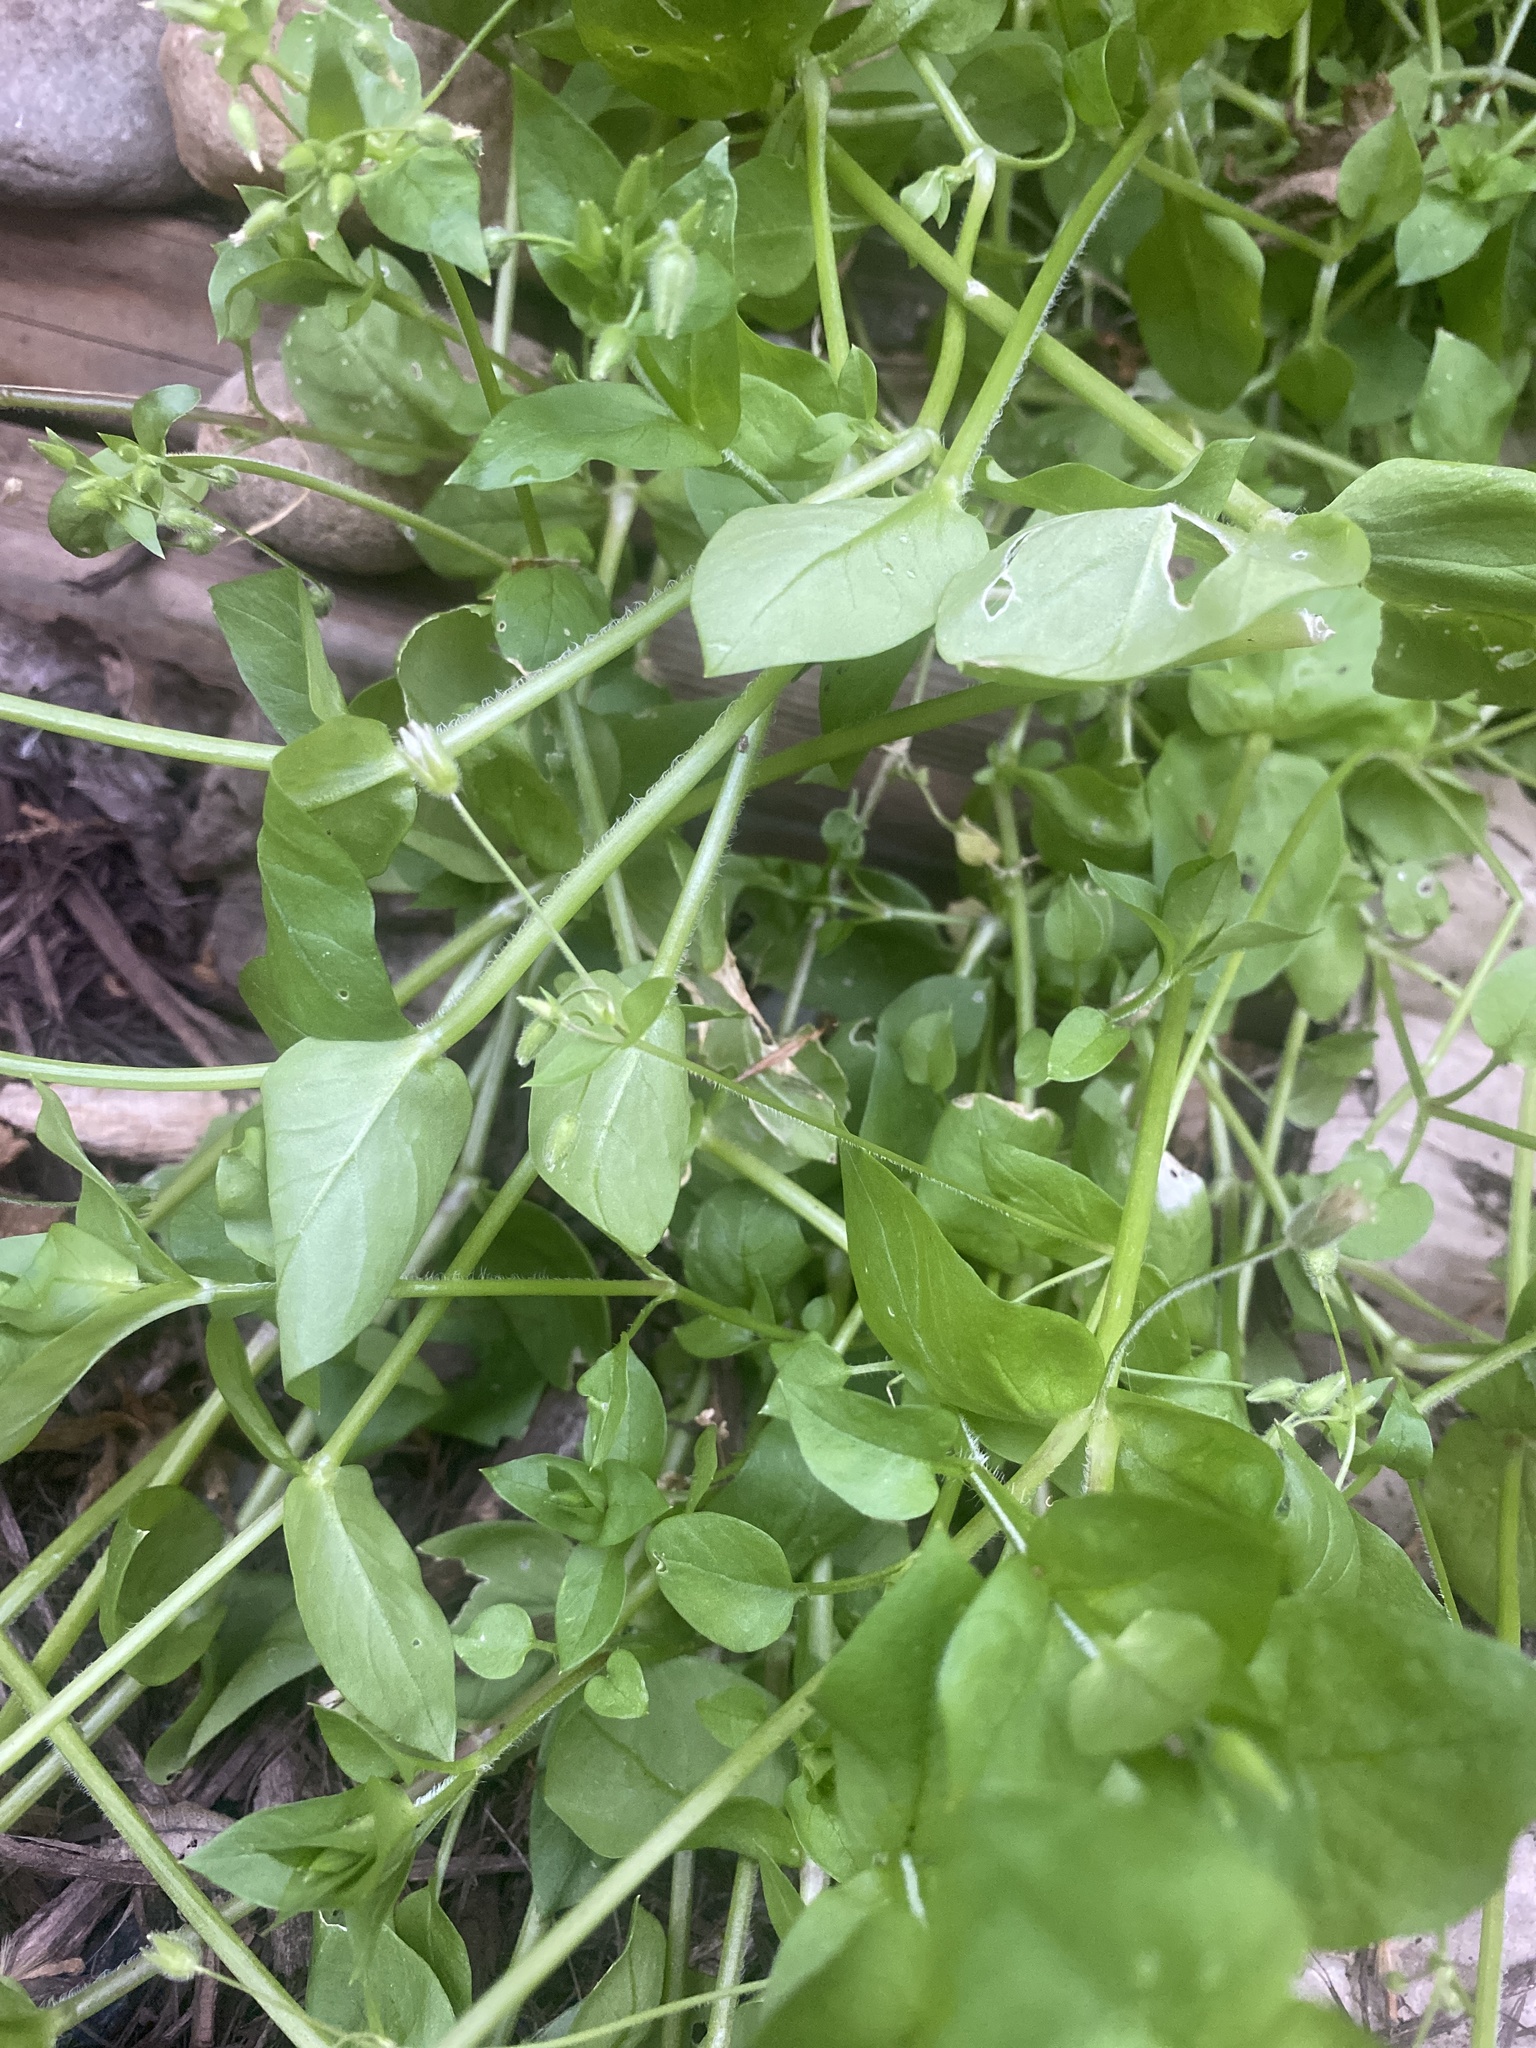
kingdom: Plantae
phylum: Tracheophyta
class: Magnoliopsida
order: Caryophyllales
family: Caryophyllaceae
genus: Stellaria
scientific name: Stellaria media
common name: Common chickweed
